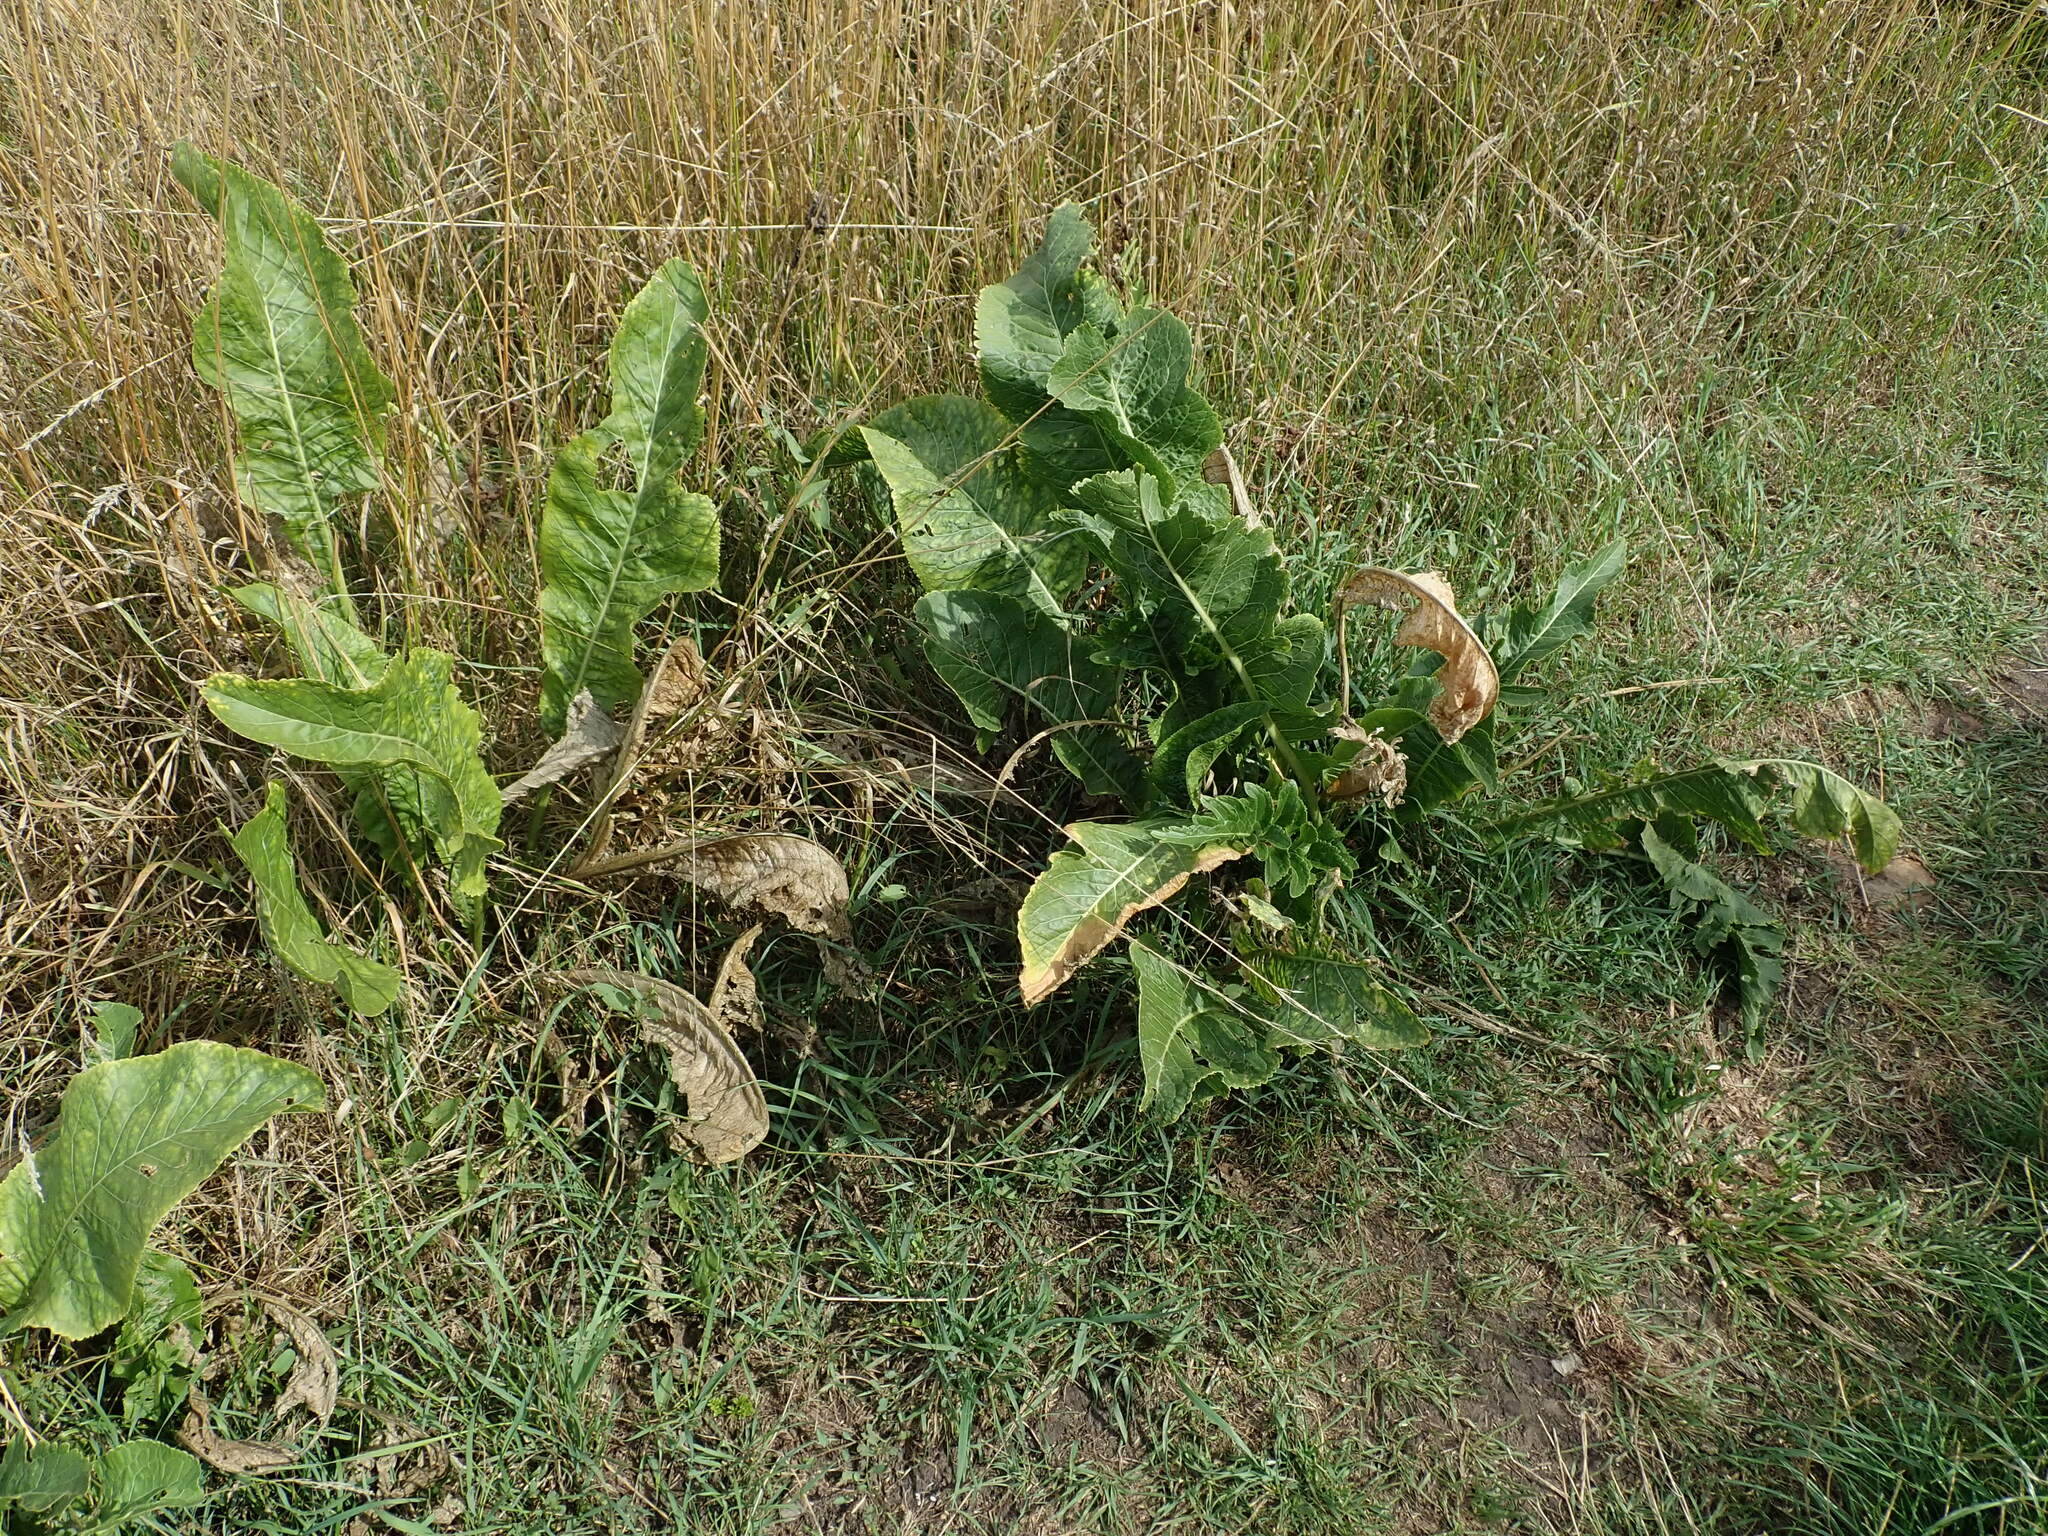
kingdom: Plantae
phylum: Tracheophyta
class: Magnoliopsida
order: Brassicales
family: Brassicaceae
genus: Armoracia
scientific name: Armoracia rusticana
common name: Horseradish
